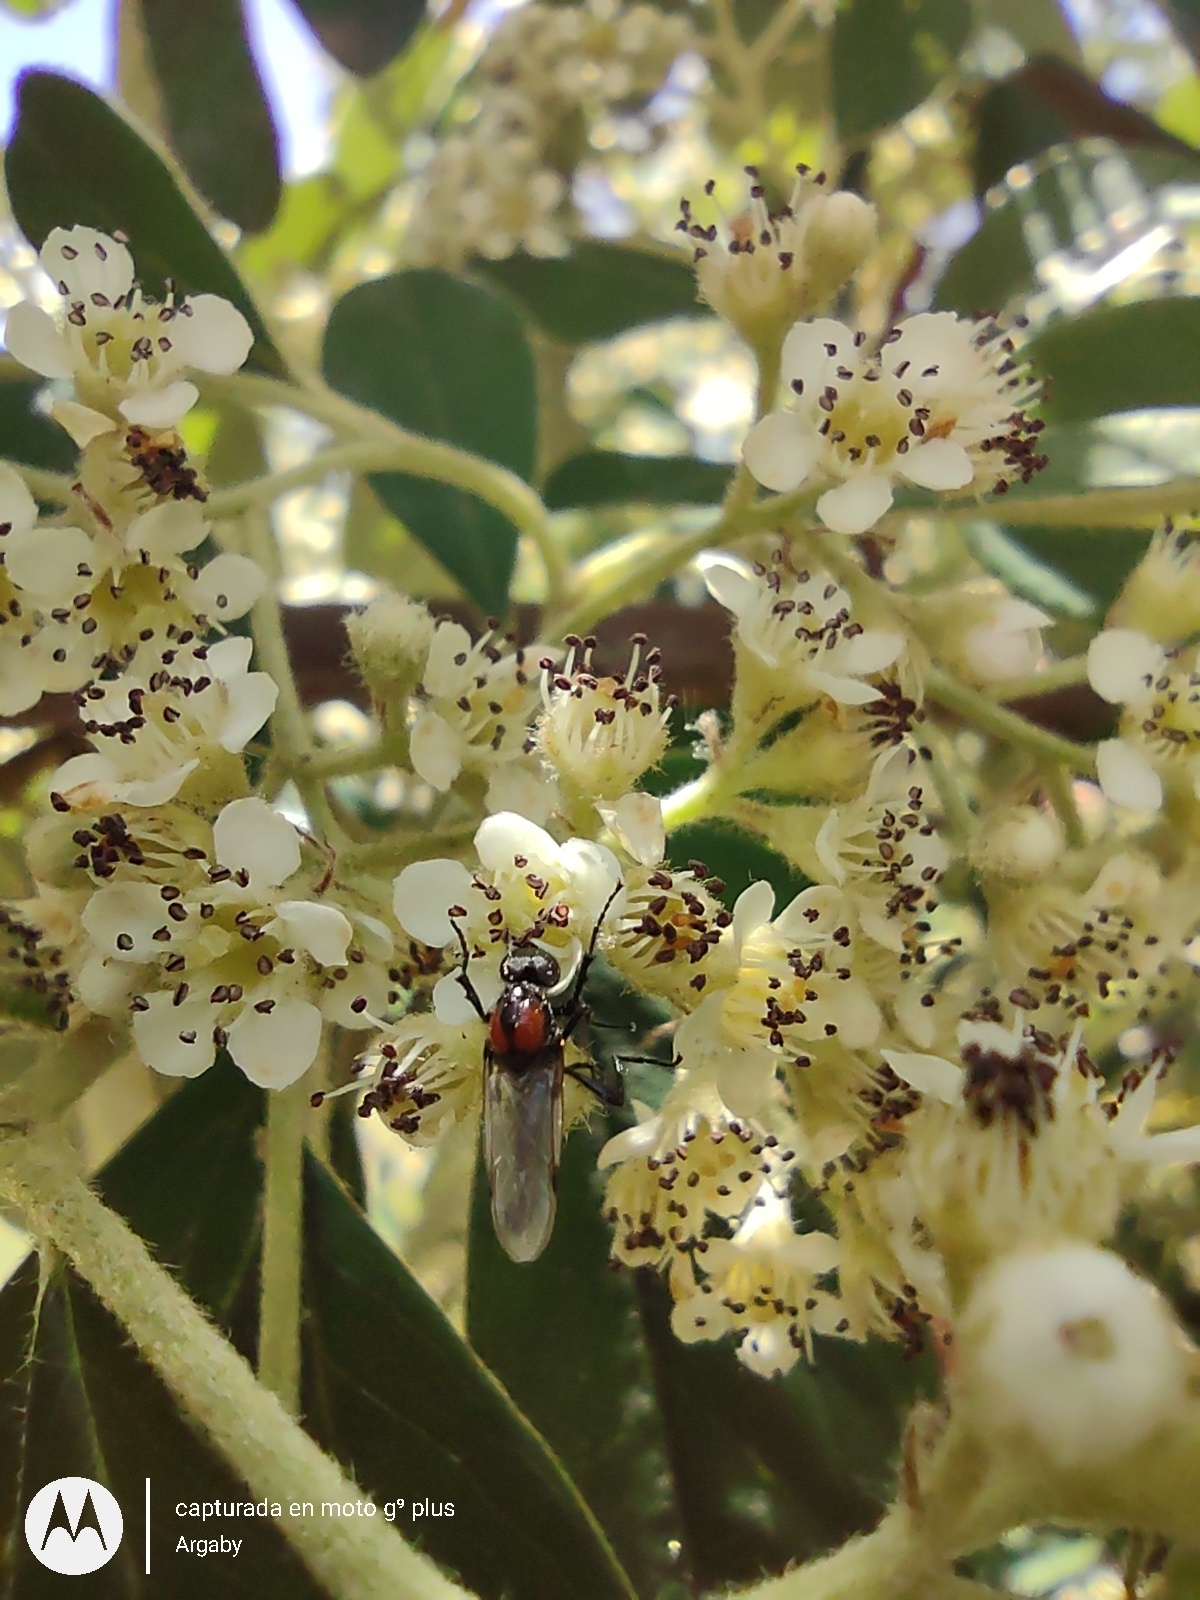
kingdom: Animalia
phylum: Arthropoda
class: Insecta
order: Diptera
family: Bibionidae
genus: Dilophus
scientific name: Dilophus pectoralis
